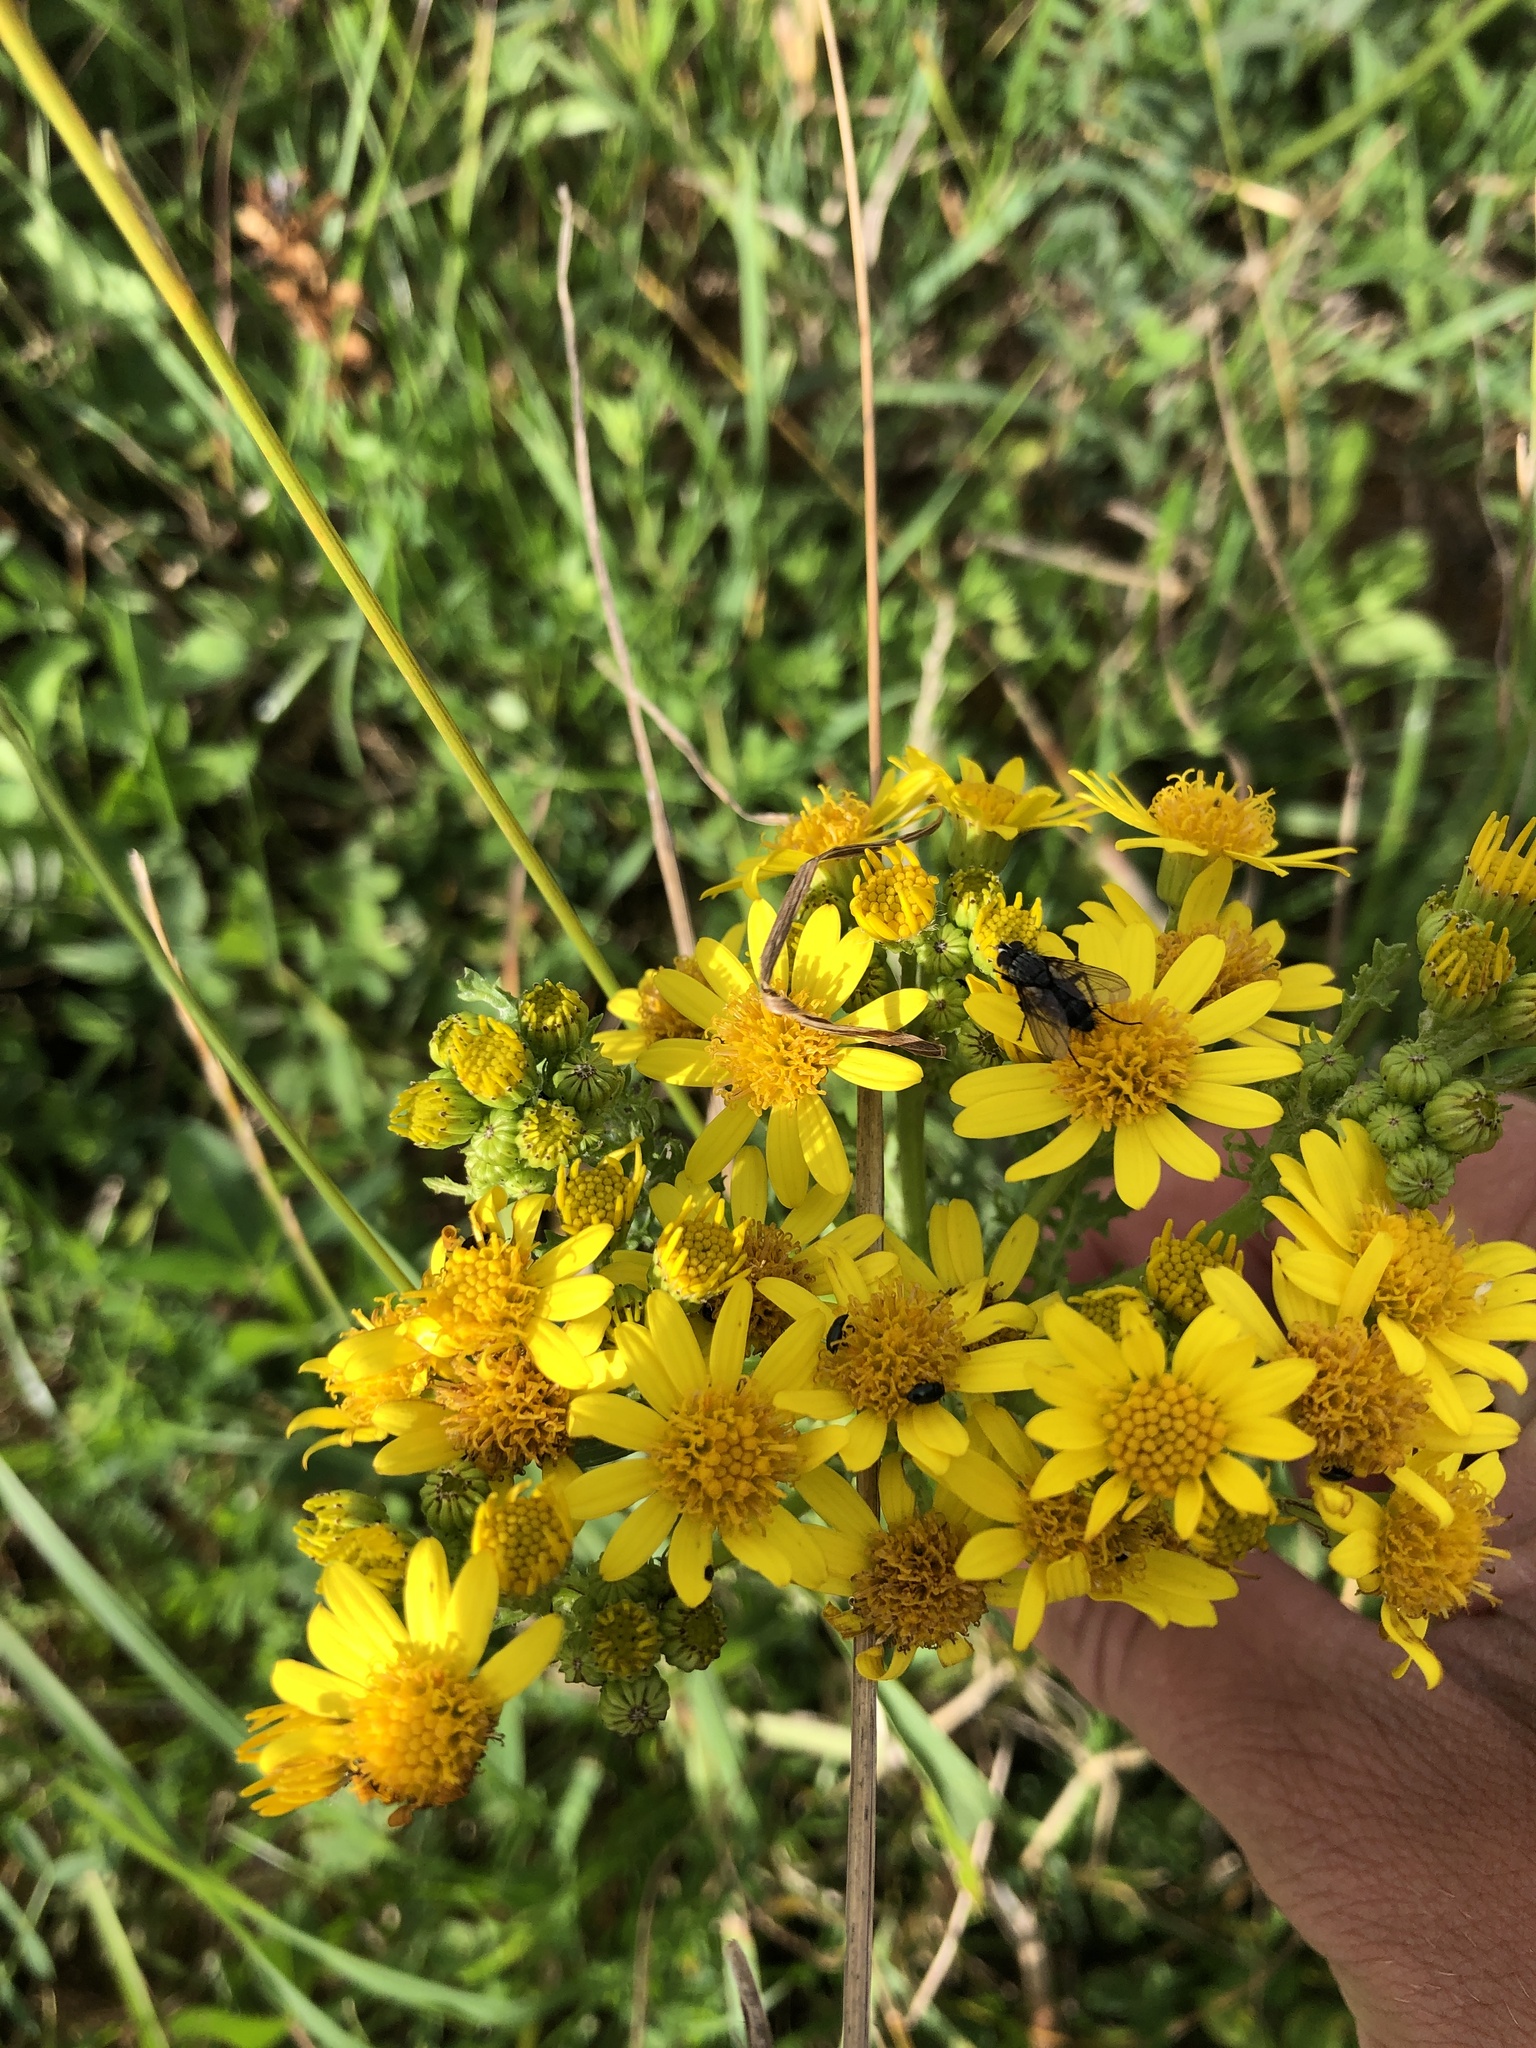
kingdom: Plantae
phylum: Tracheophyta
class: Magnoliopsida
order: Asterales
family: Asteraceae
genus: Jacobaea
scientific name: Jacobaea vulgaris
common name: Stinking willie
